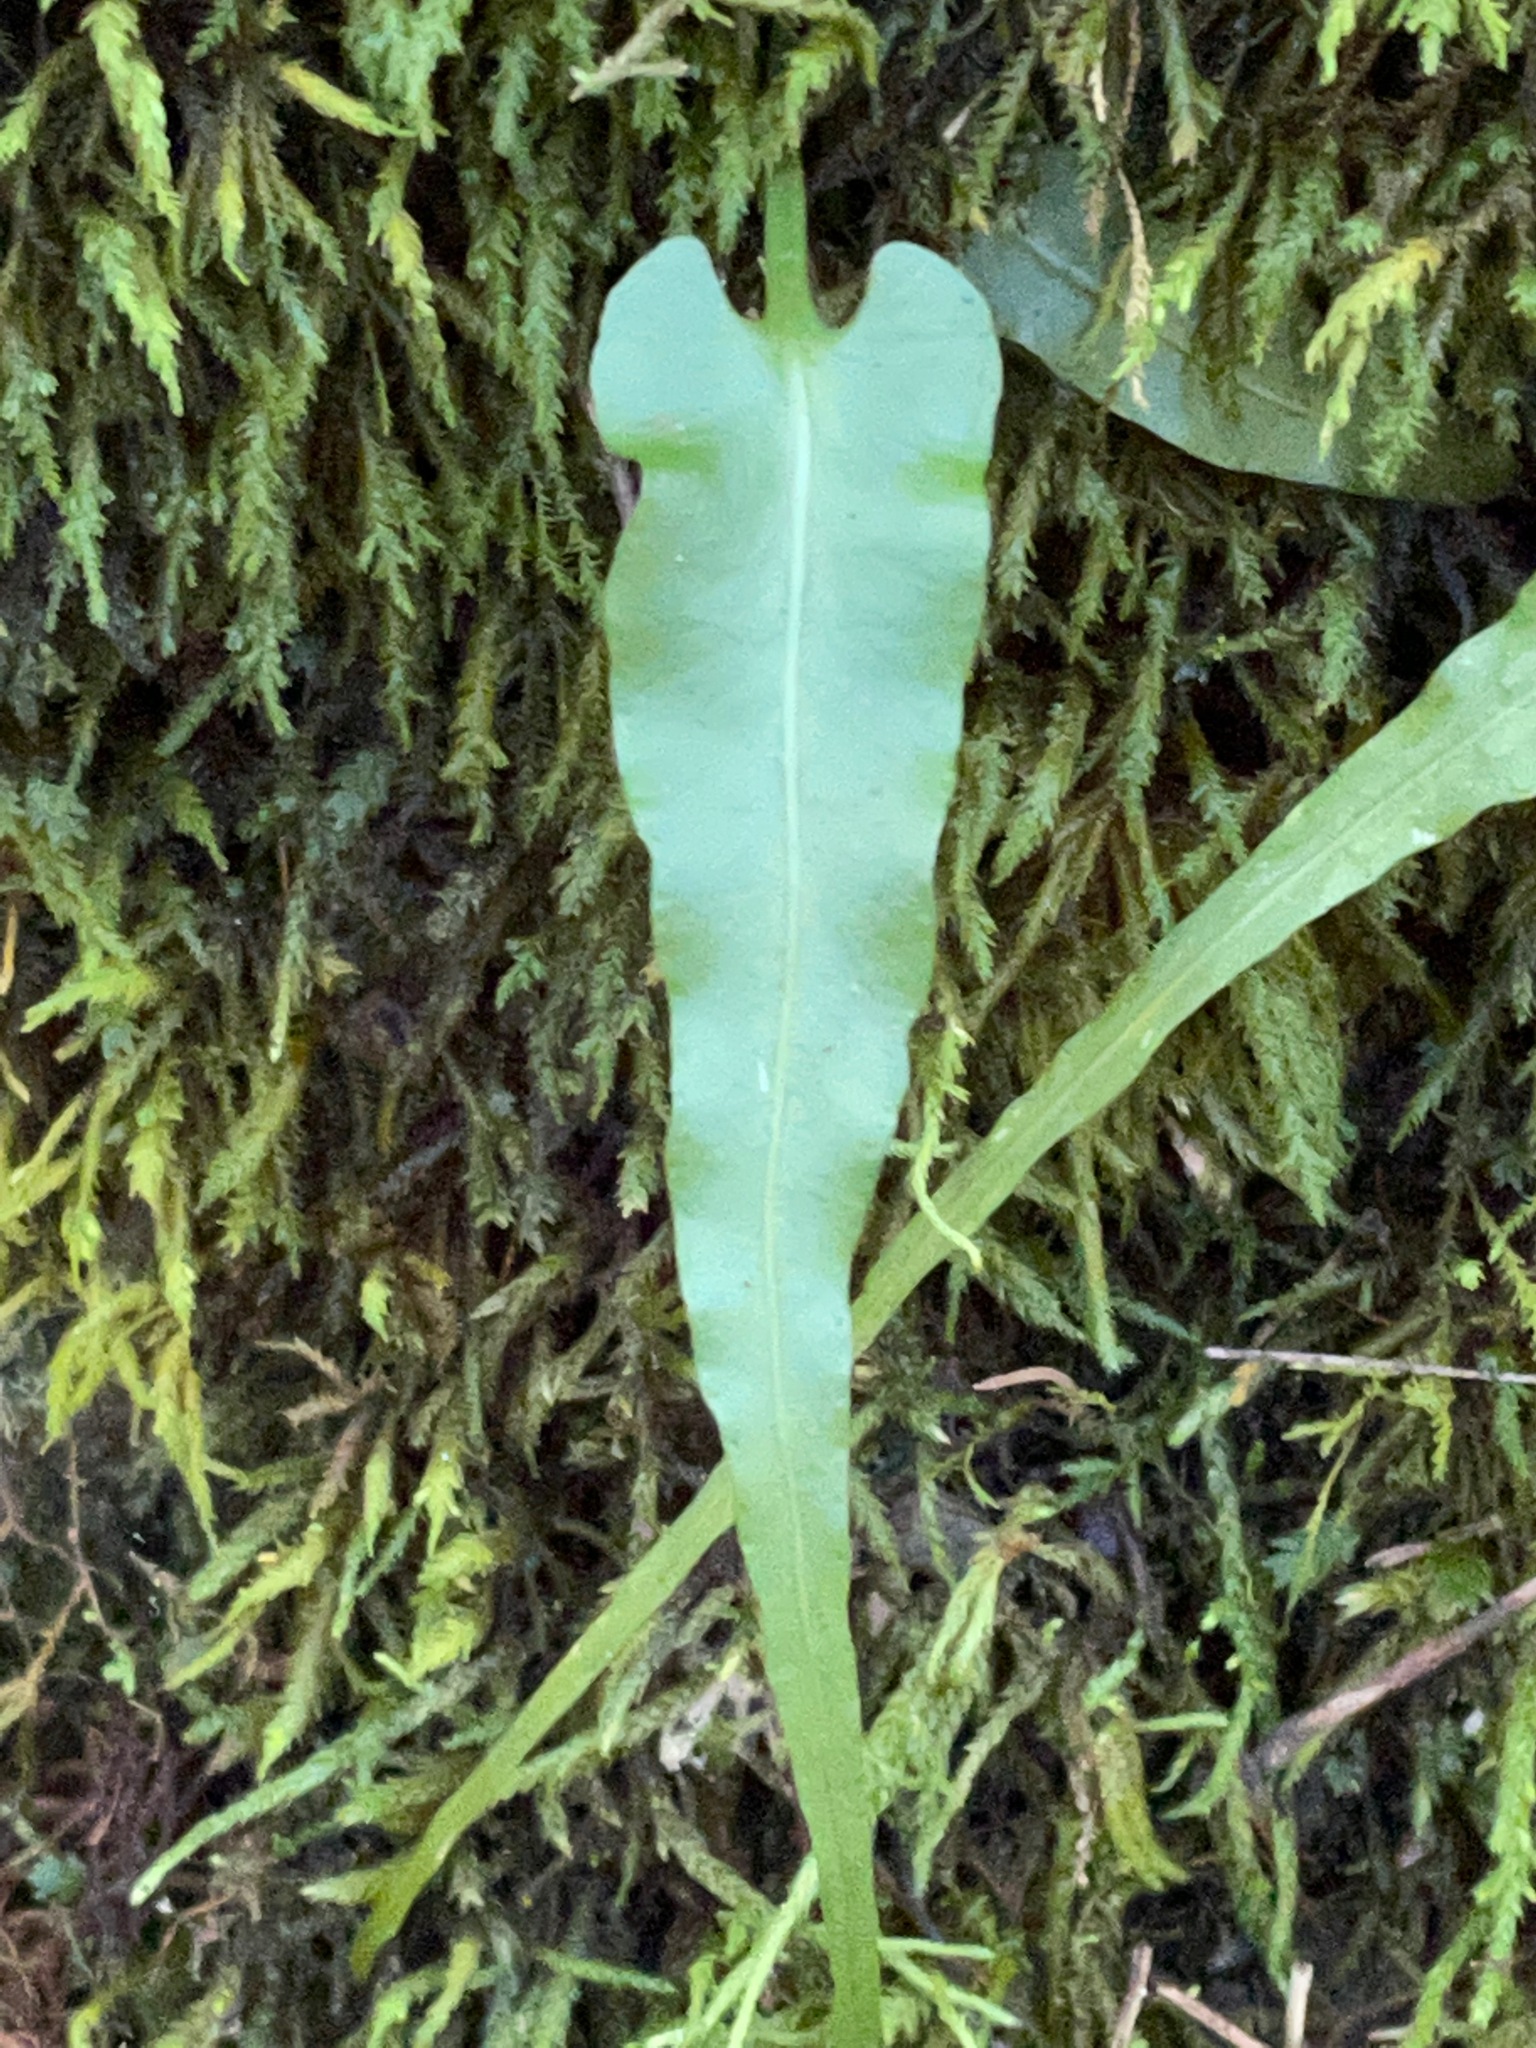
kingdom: Plantae
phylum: Tracheophyta
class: Polypodiopsida
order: Polypodiales
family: Aspleniaceae
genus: Asplenium
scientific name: Asplenium rhizophyllum
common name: Walking fern
